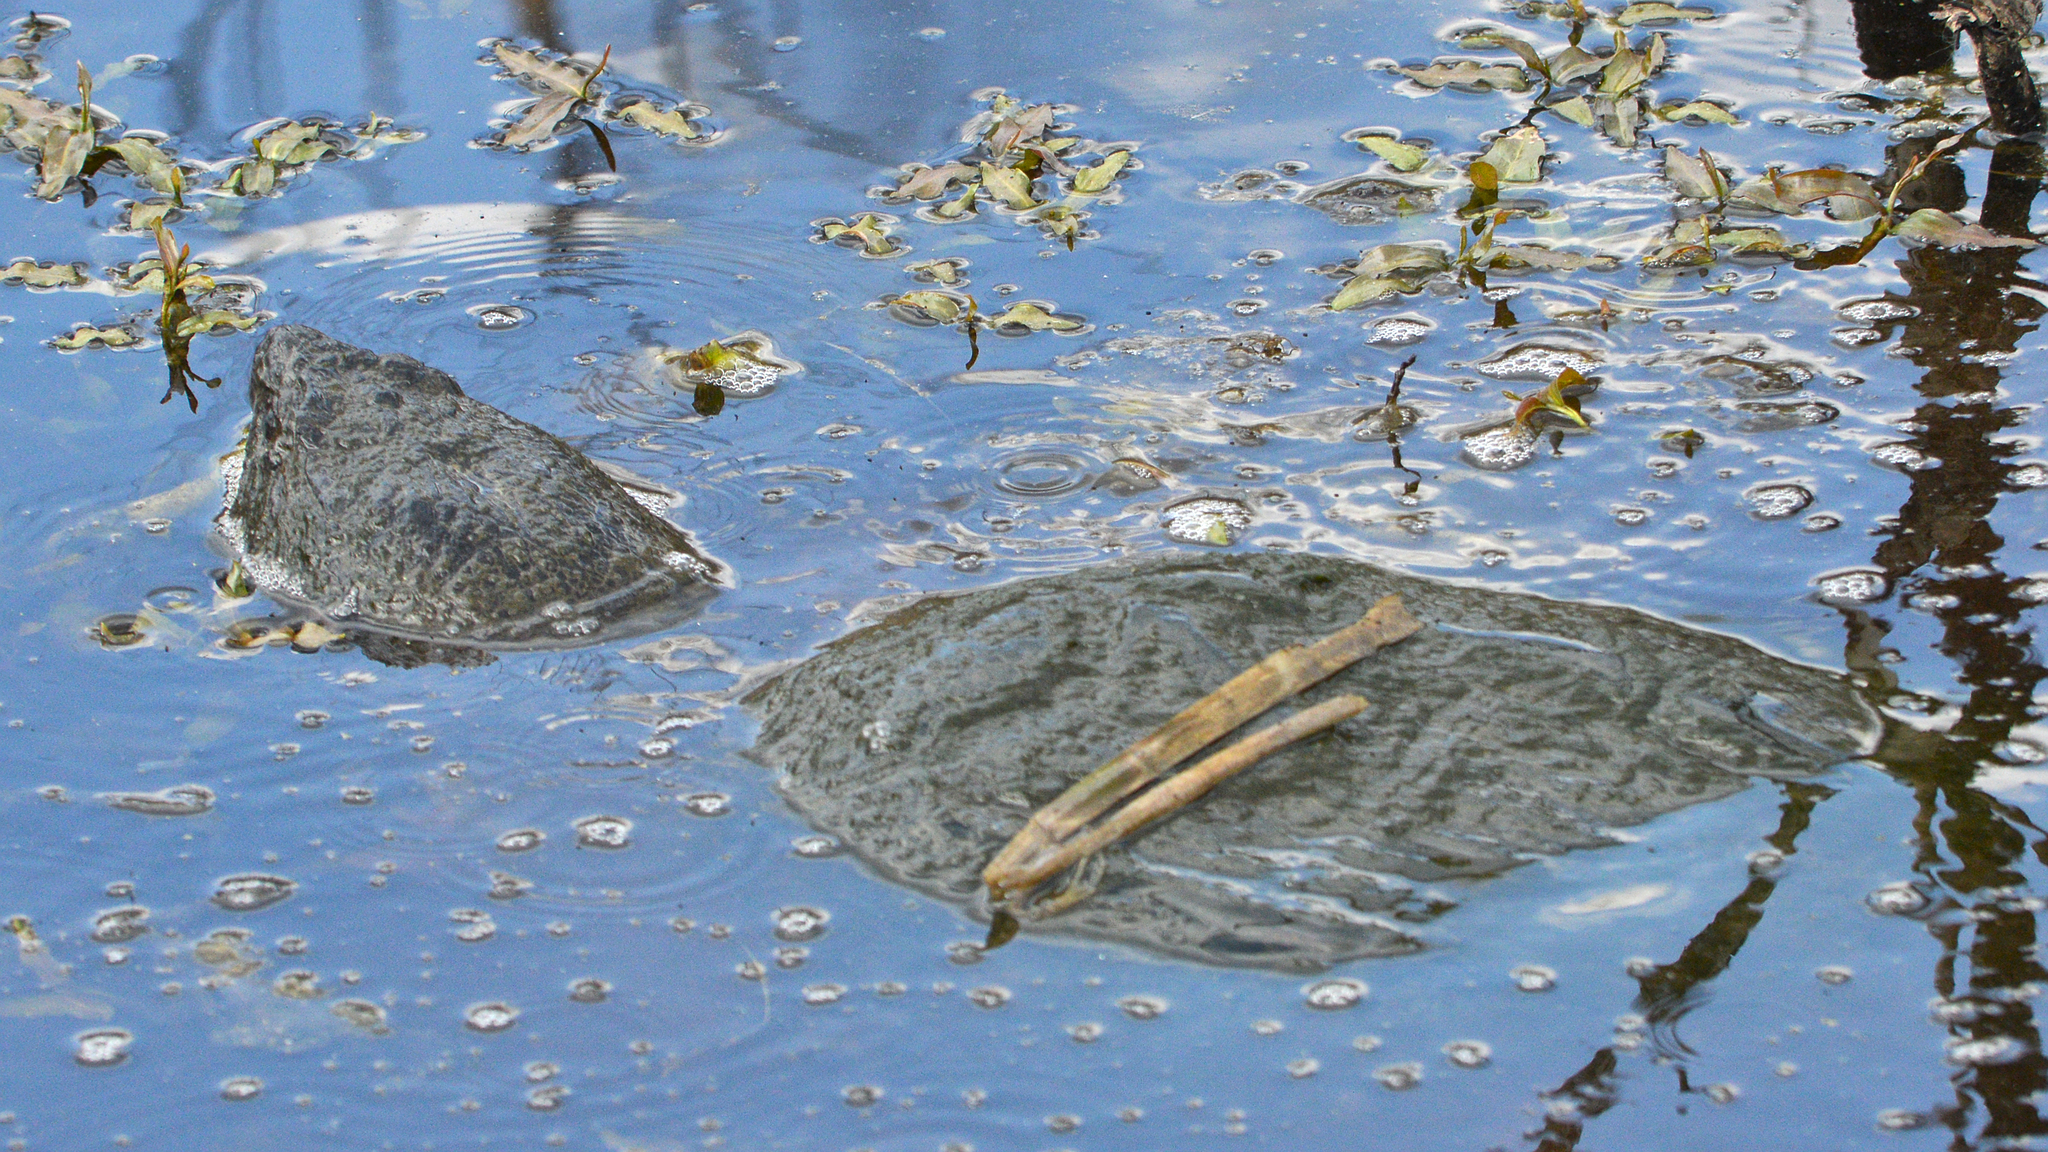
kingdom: Animalia
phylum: Chordata
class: Testudines
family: Chelydridae
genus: Chelydra
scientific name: Chelydra serpentina
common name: Common snapping turtle
